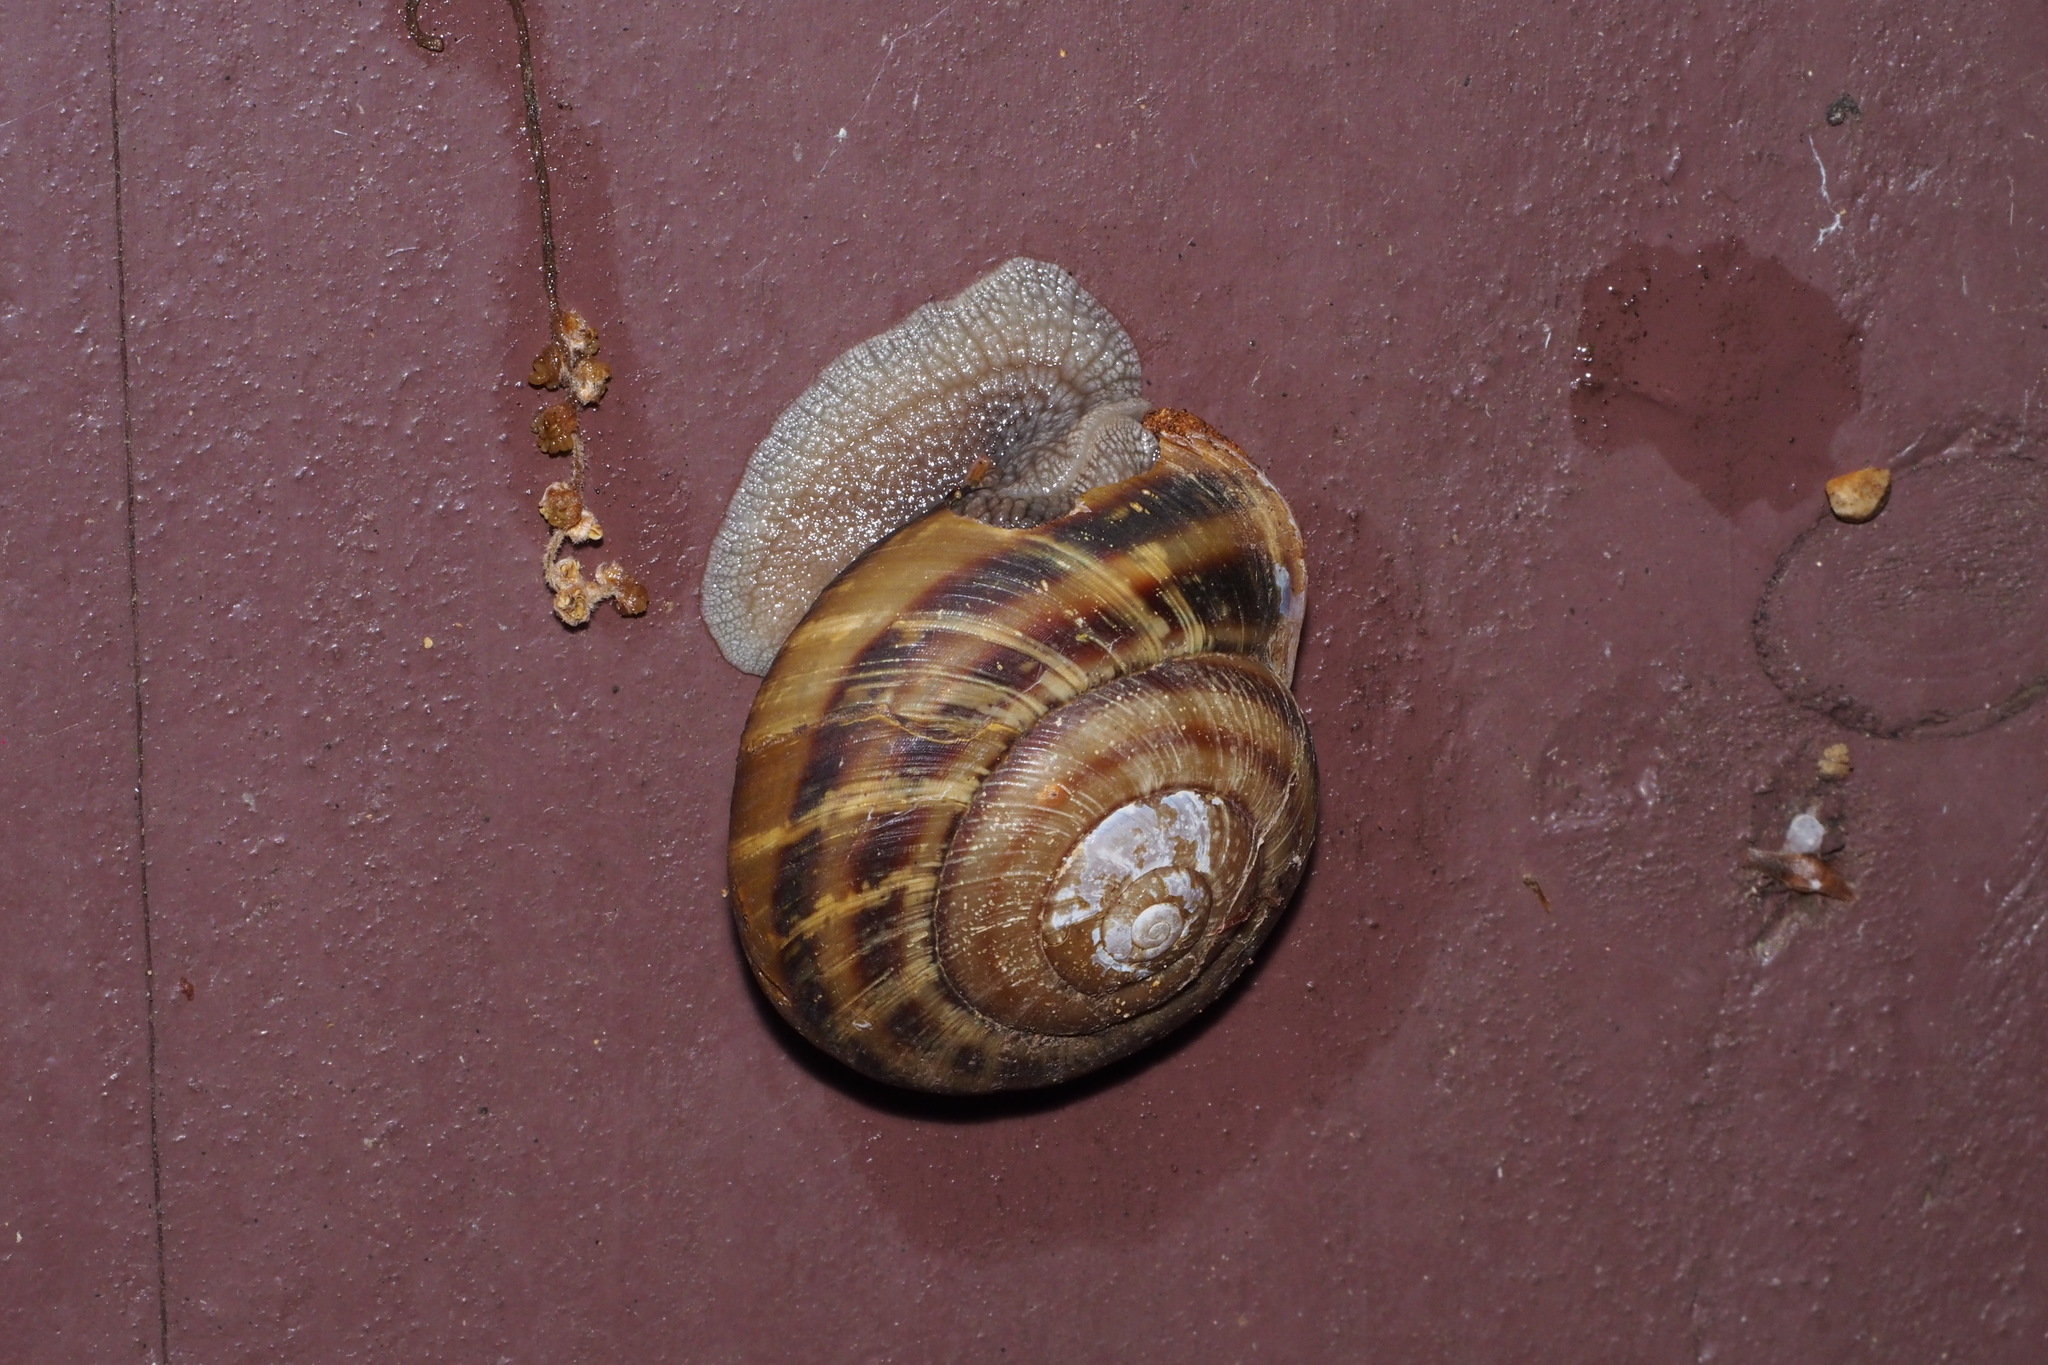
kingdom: Animalia
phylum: Mollusca
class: Gastropoda
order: Stylommatophora
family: Camaenidae
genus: Euhadra
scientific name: Euhadra sandai
